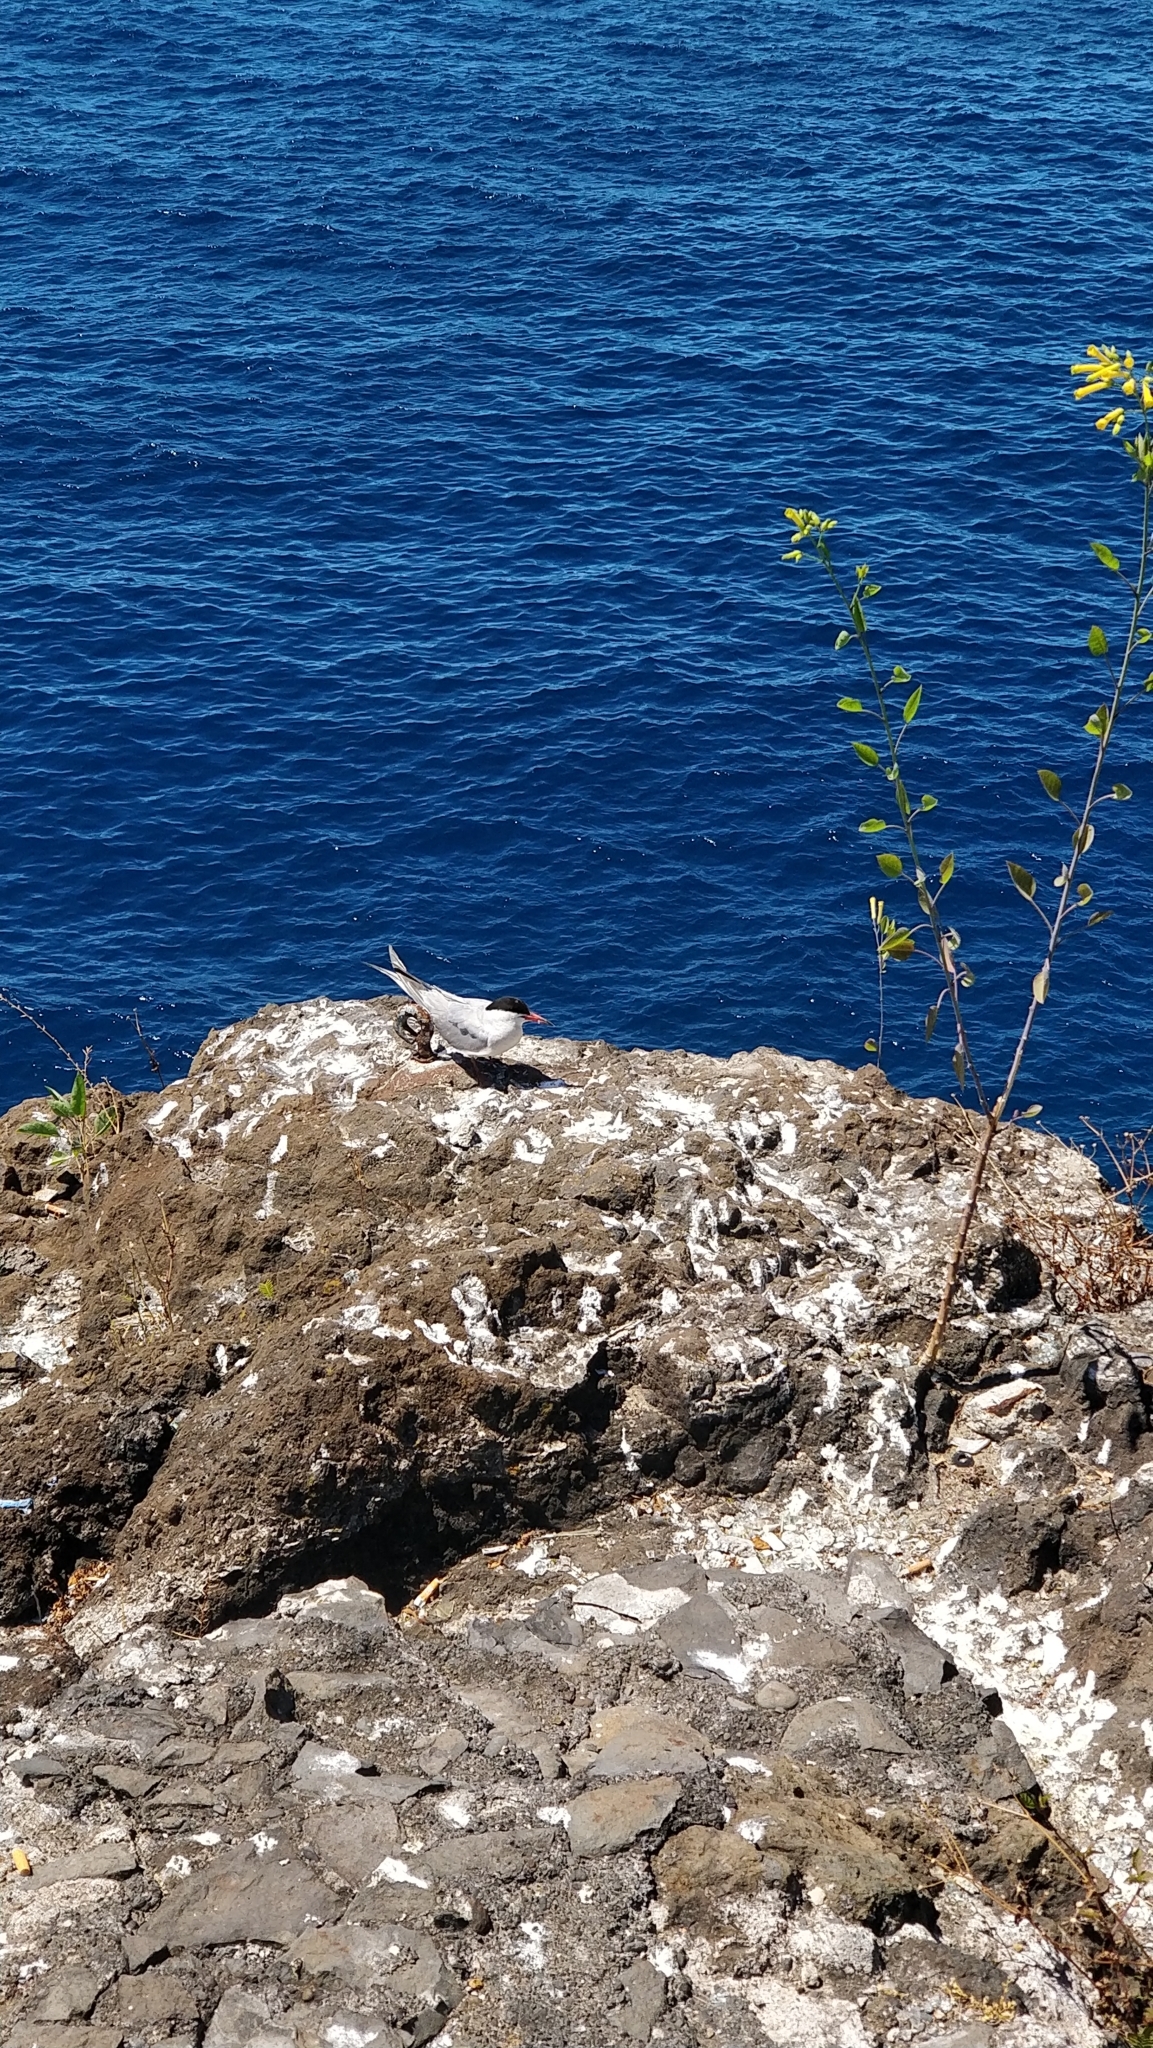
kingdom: Animalia
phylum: Chordata
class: Aves
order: Charadriiformes
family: Laridae
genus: Sterna
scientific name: Sterna hirundo
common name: Common tern
